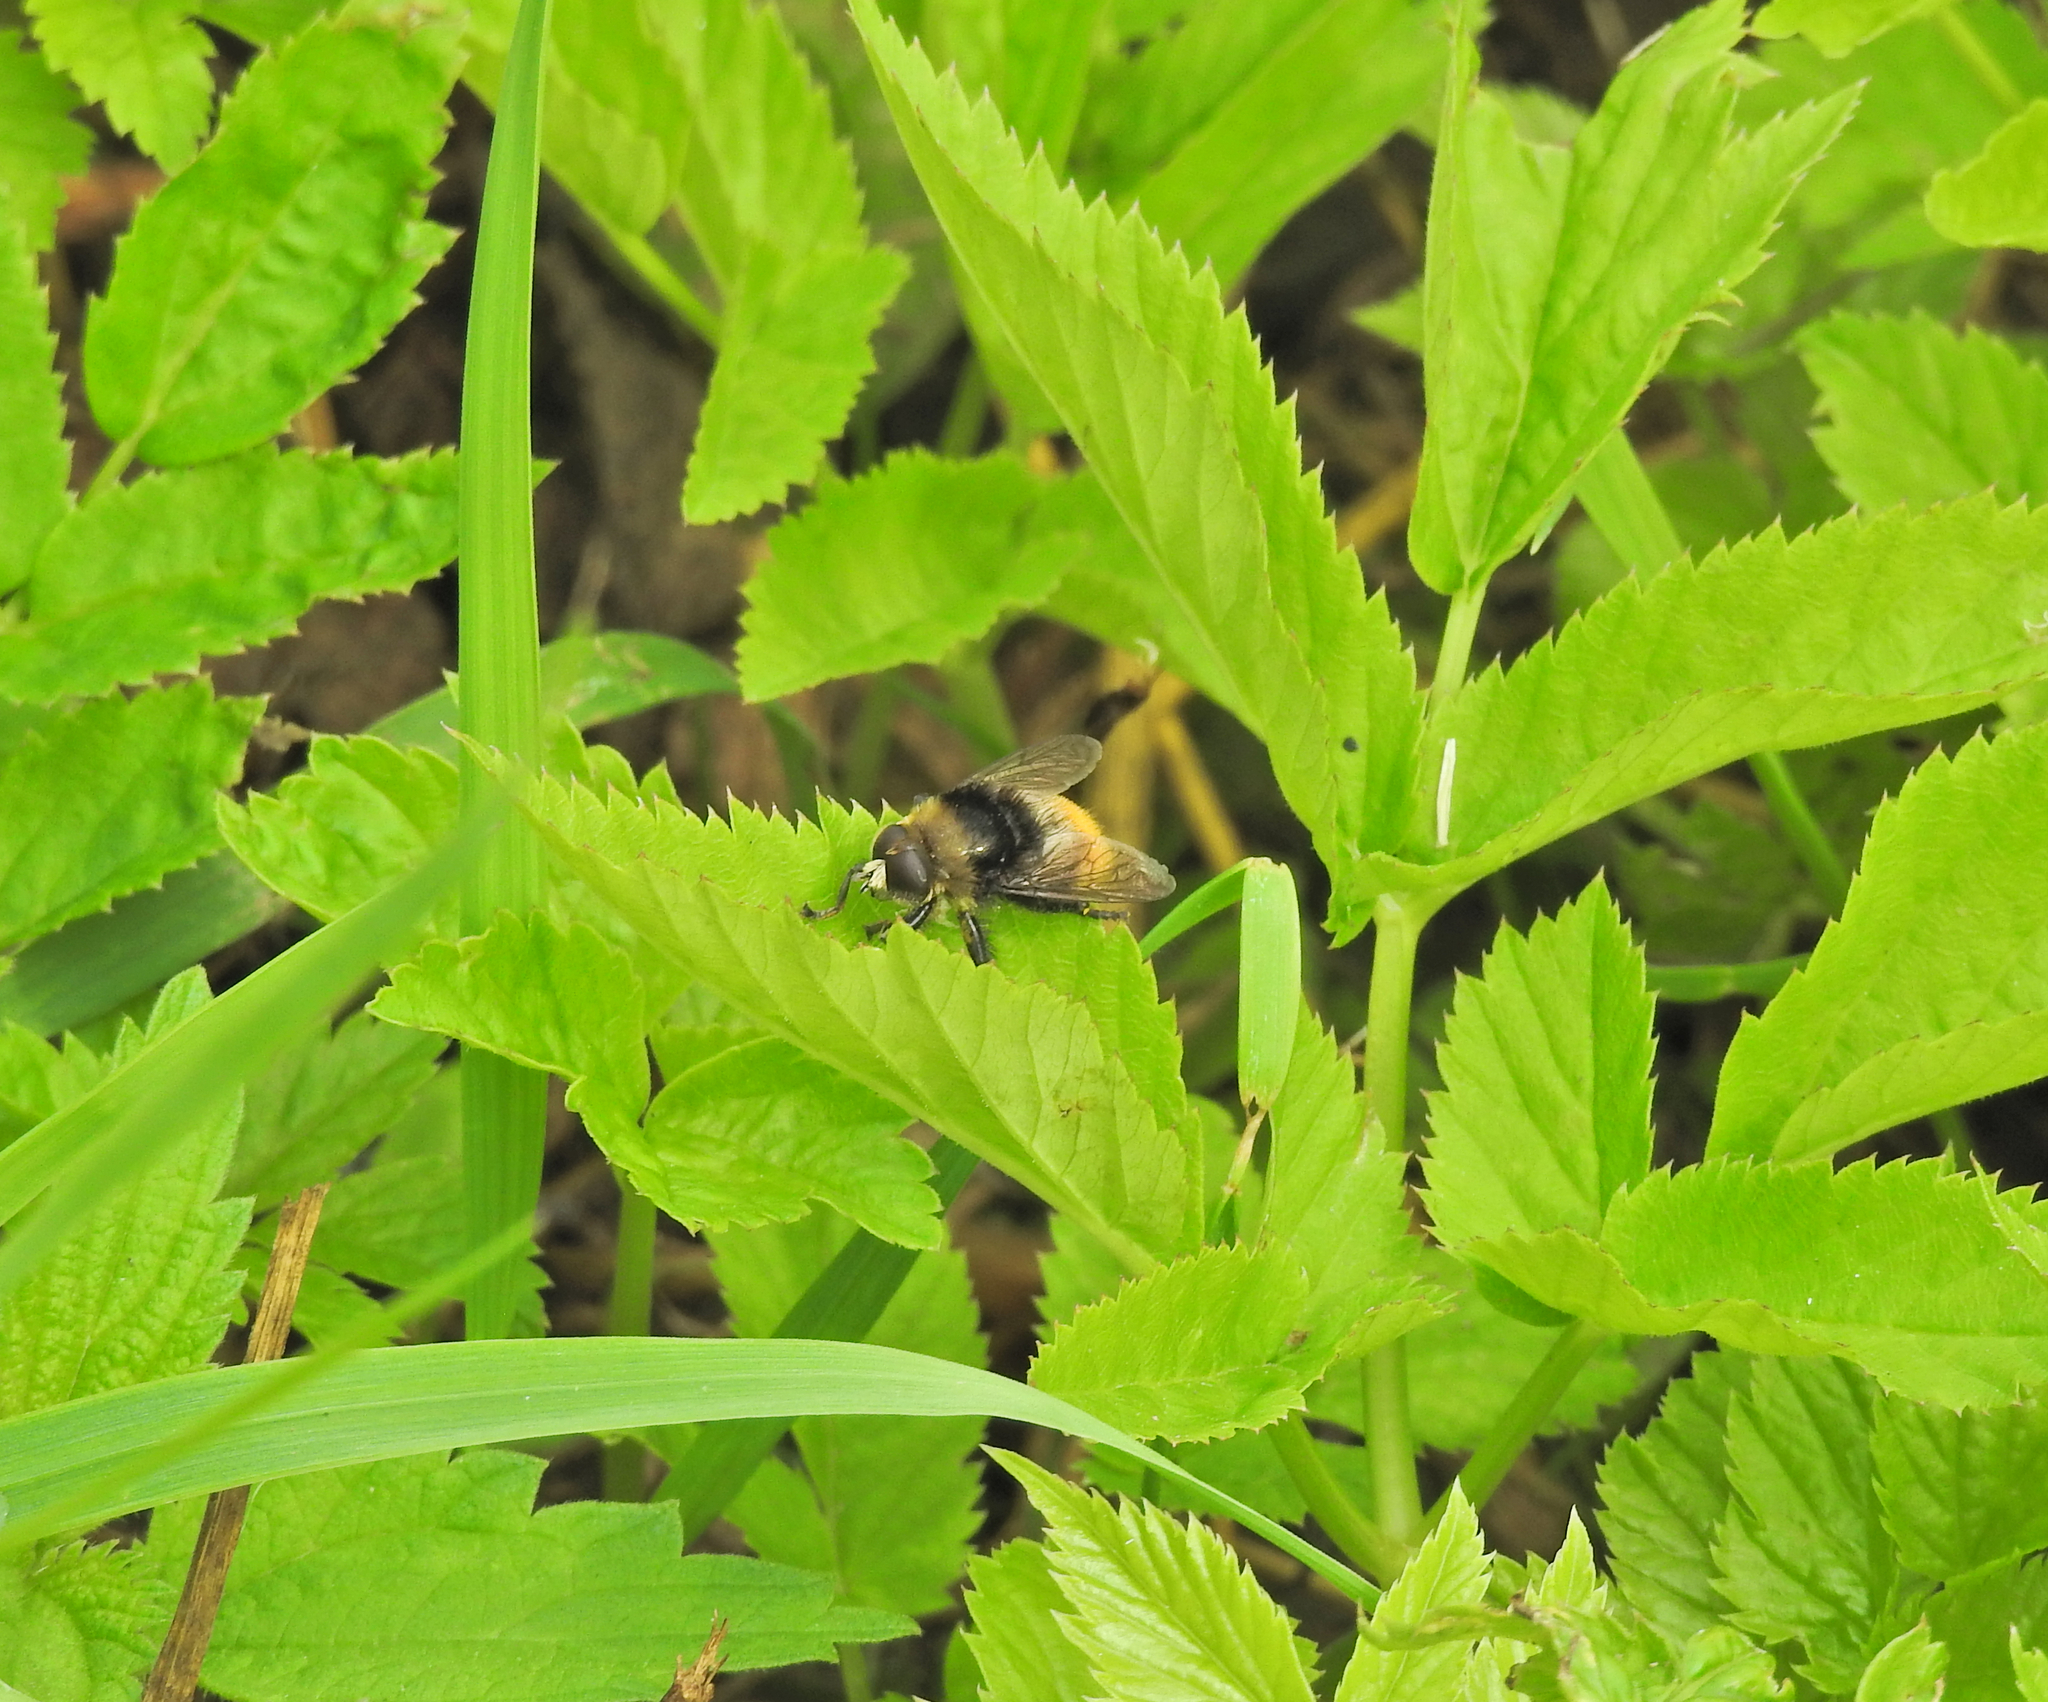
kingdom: Animalia
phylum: Arthropoda
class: Insecta
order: Diptera
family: Syrphidae
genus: Merodon
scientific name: Merodon equestris
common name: Greater bulb-fly
